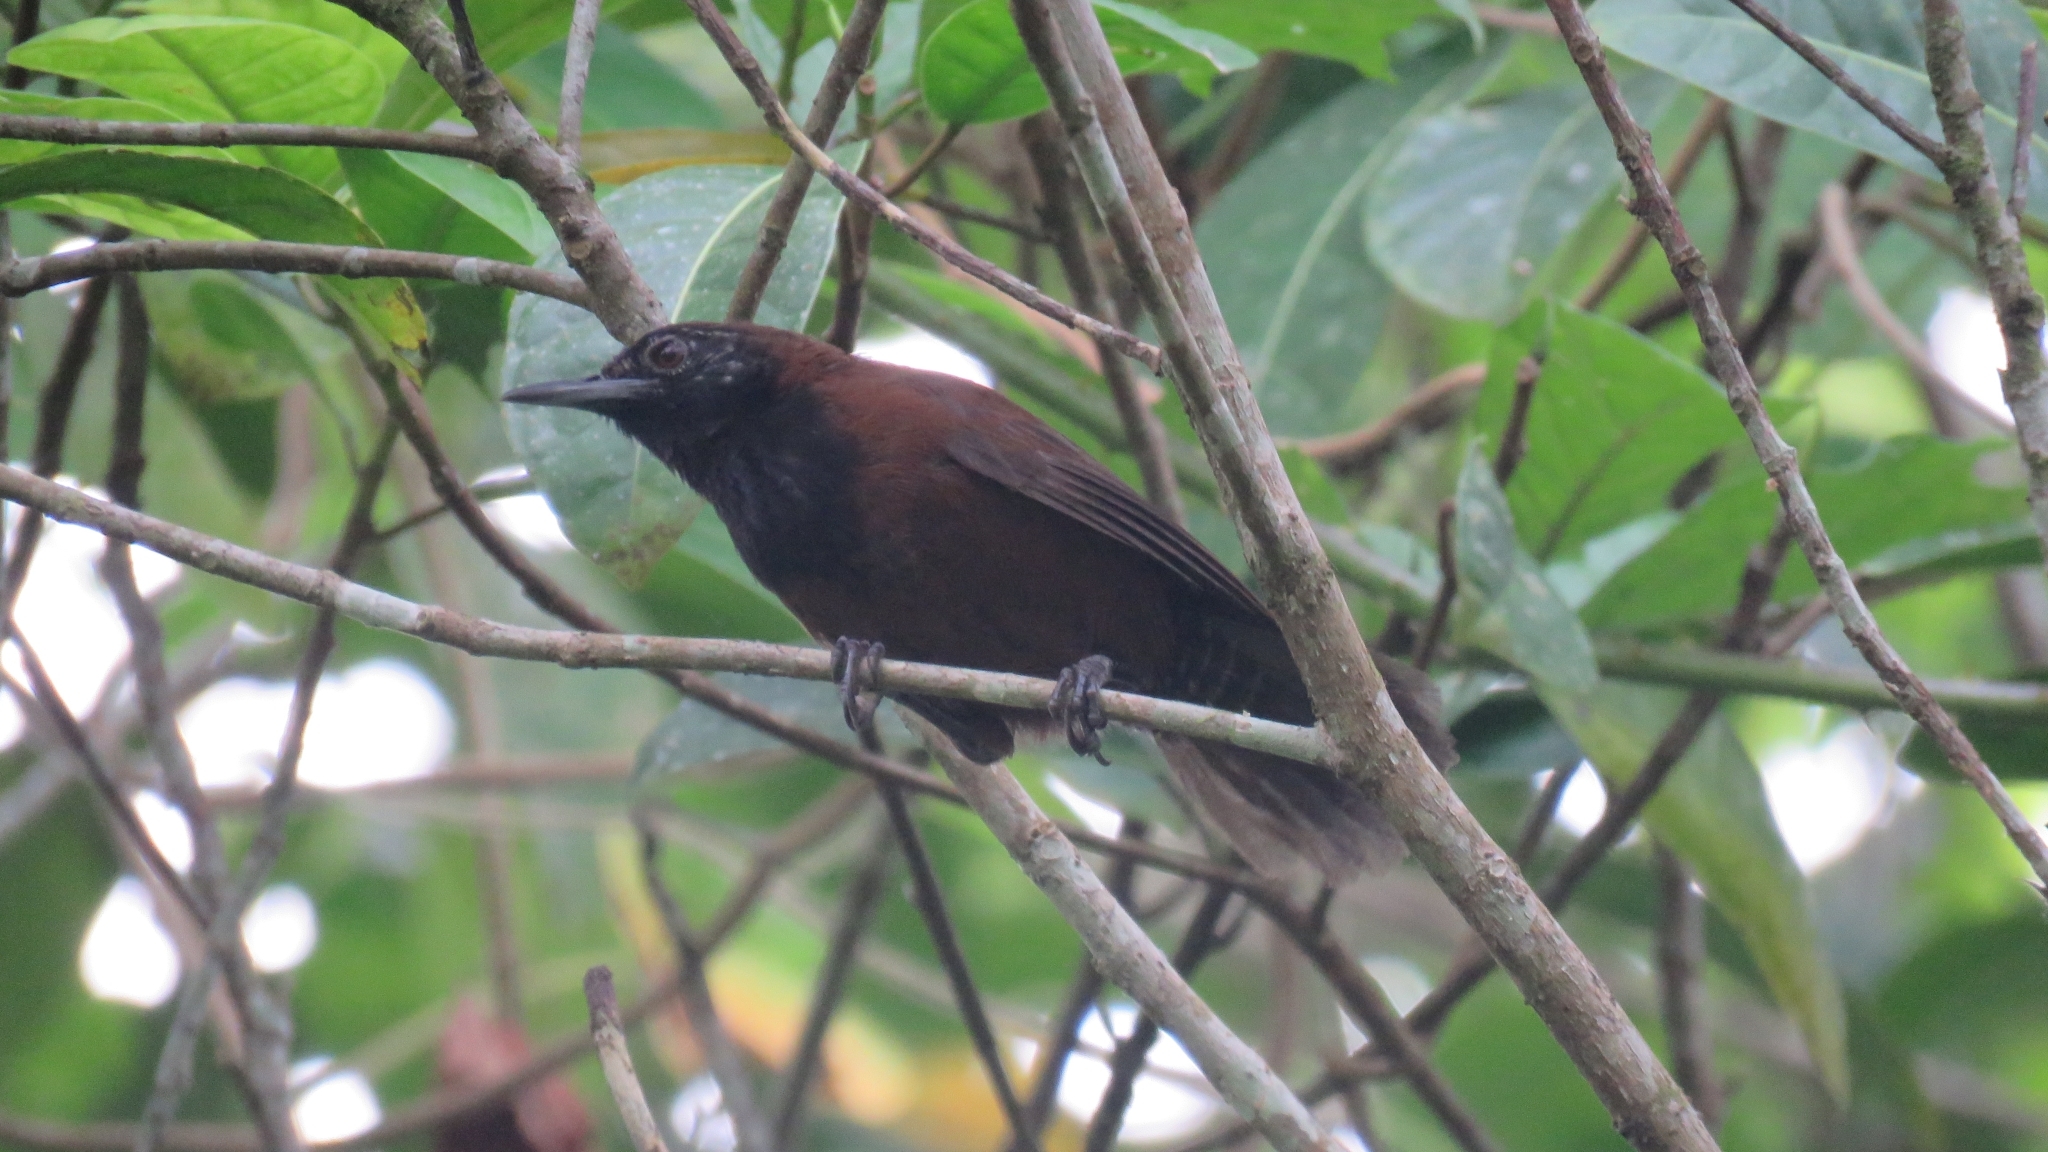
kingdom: Animalia
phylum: Chordata
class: Aves
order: Passeriformes
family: Troglodytidae
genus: Pheugopedius
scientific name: Pheugopedius atrogularis
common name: Black-throated wren
